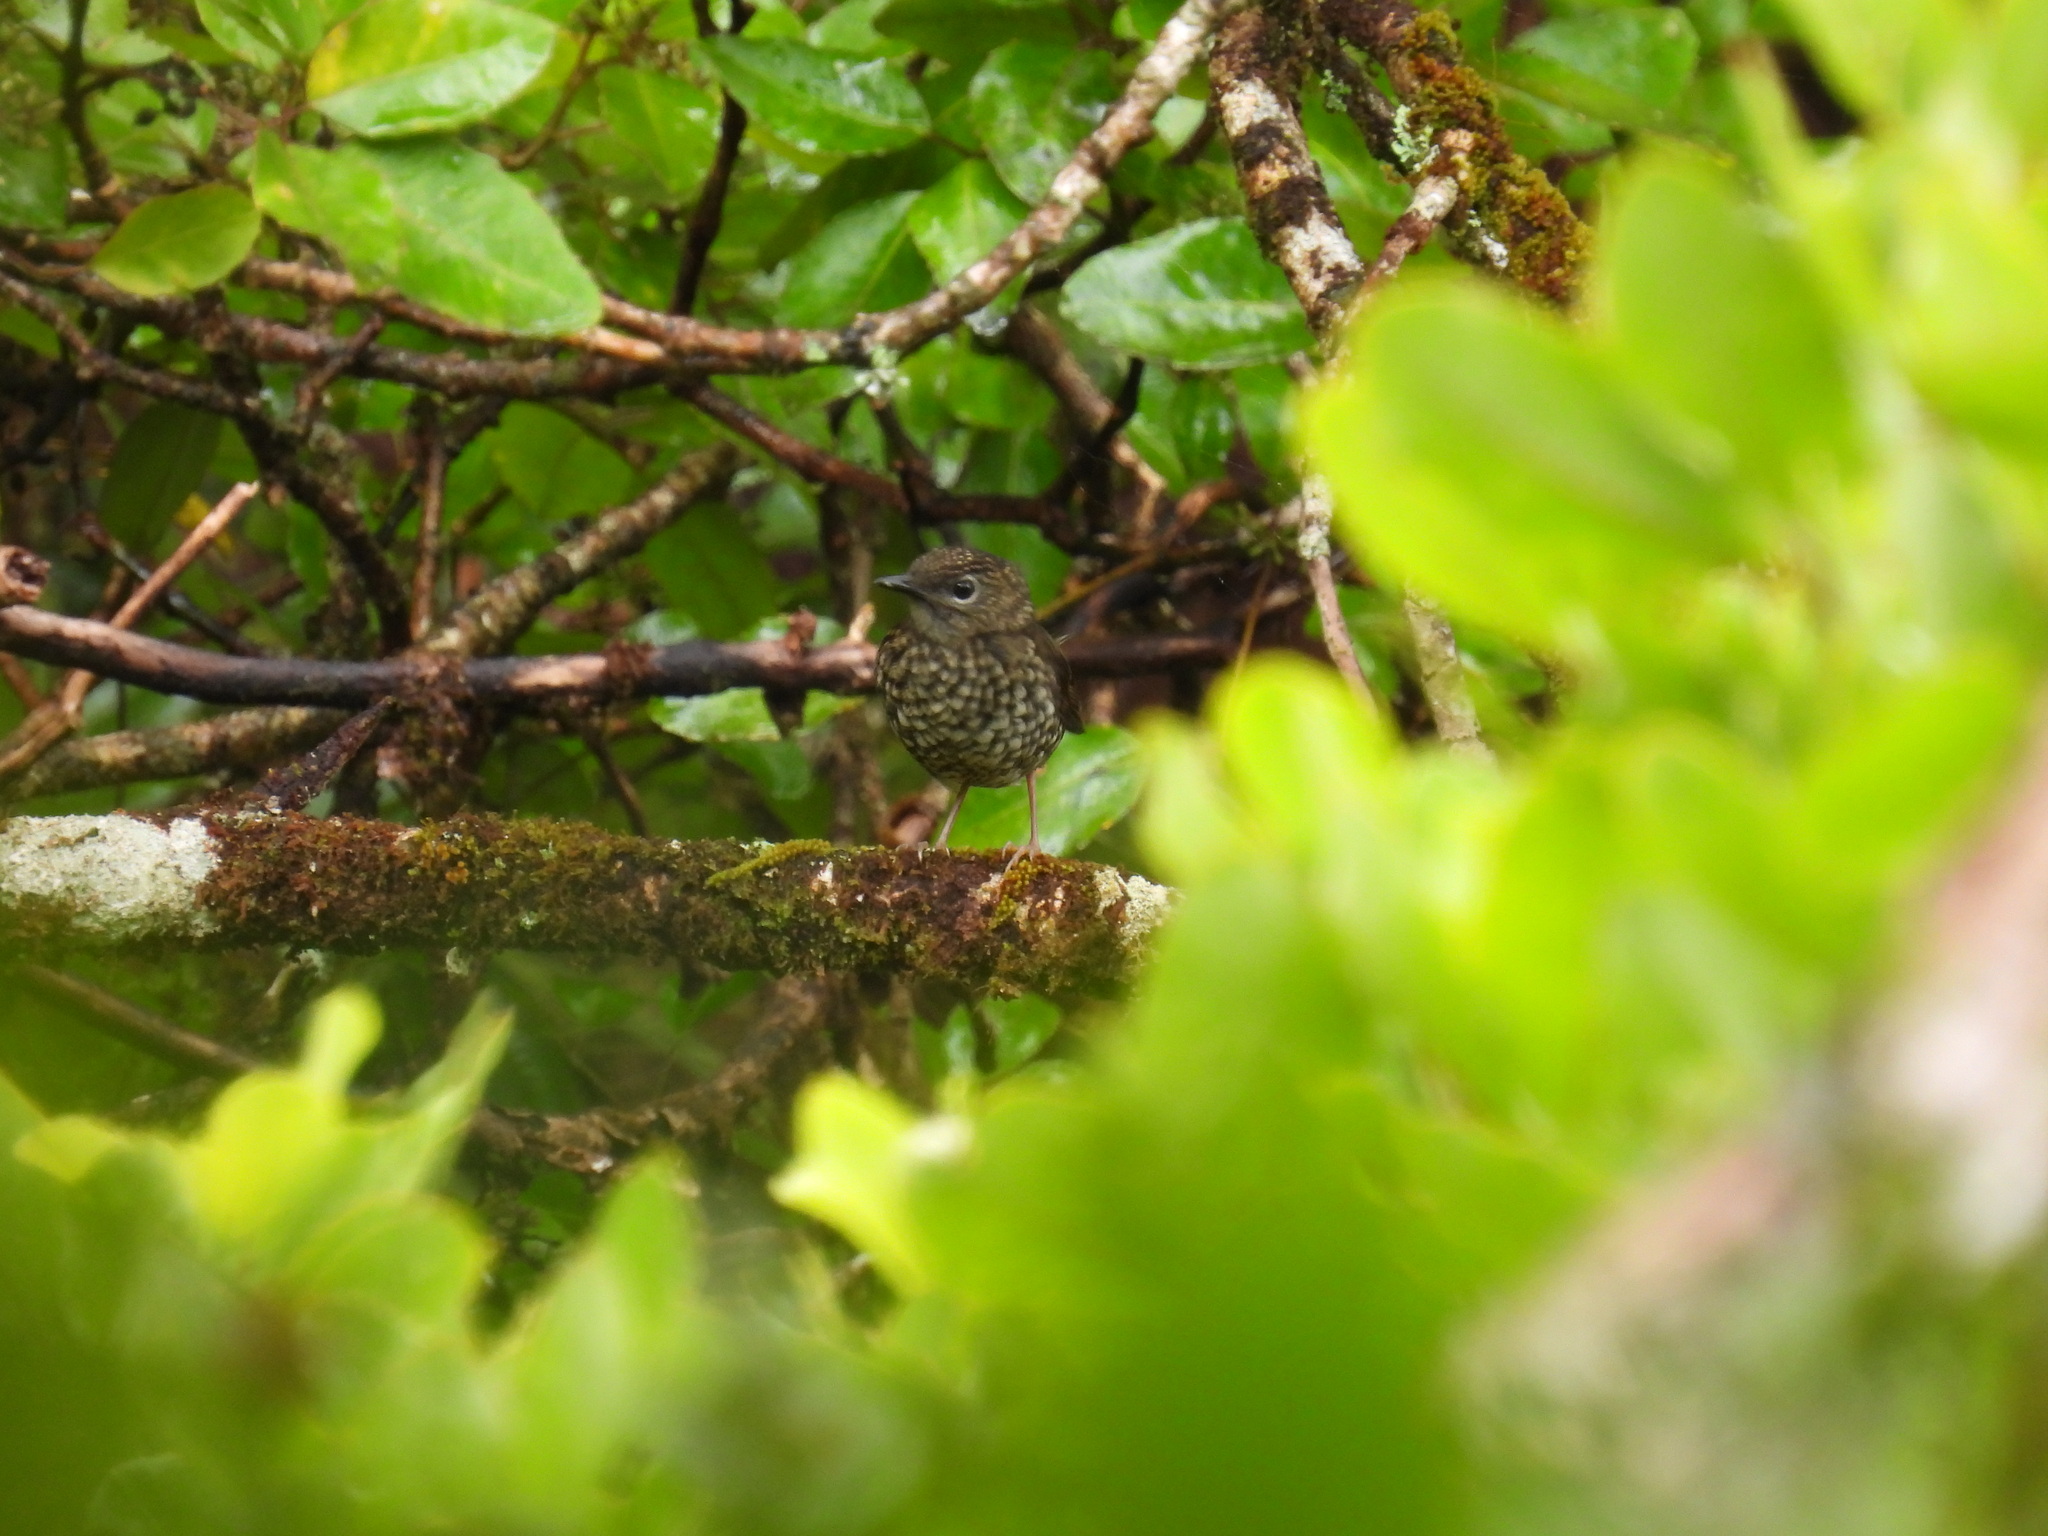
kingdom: Animalia
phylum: Chordata
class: Aves
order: Passeriformes
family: Turdidae
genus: Myadestes
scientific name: Myadestes palmeri
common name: Puaiohi
